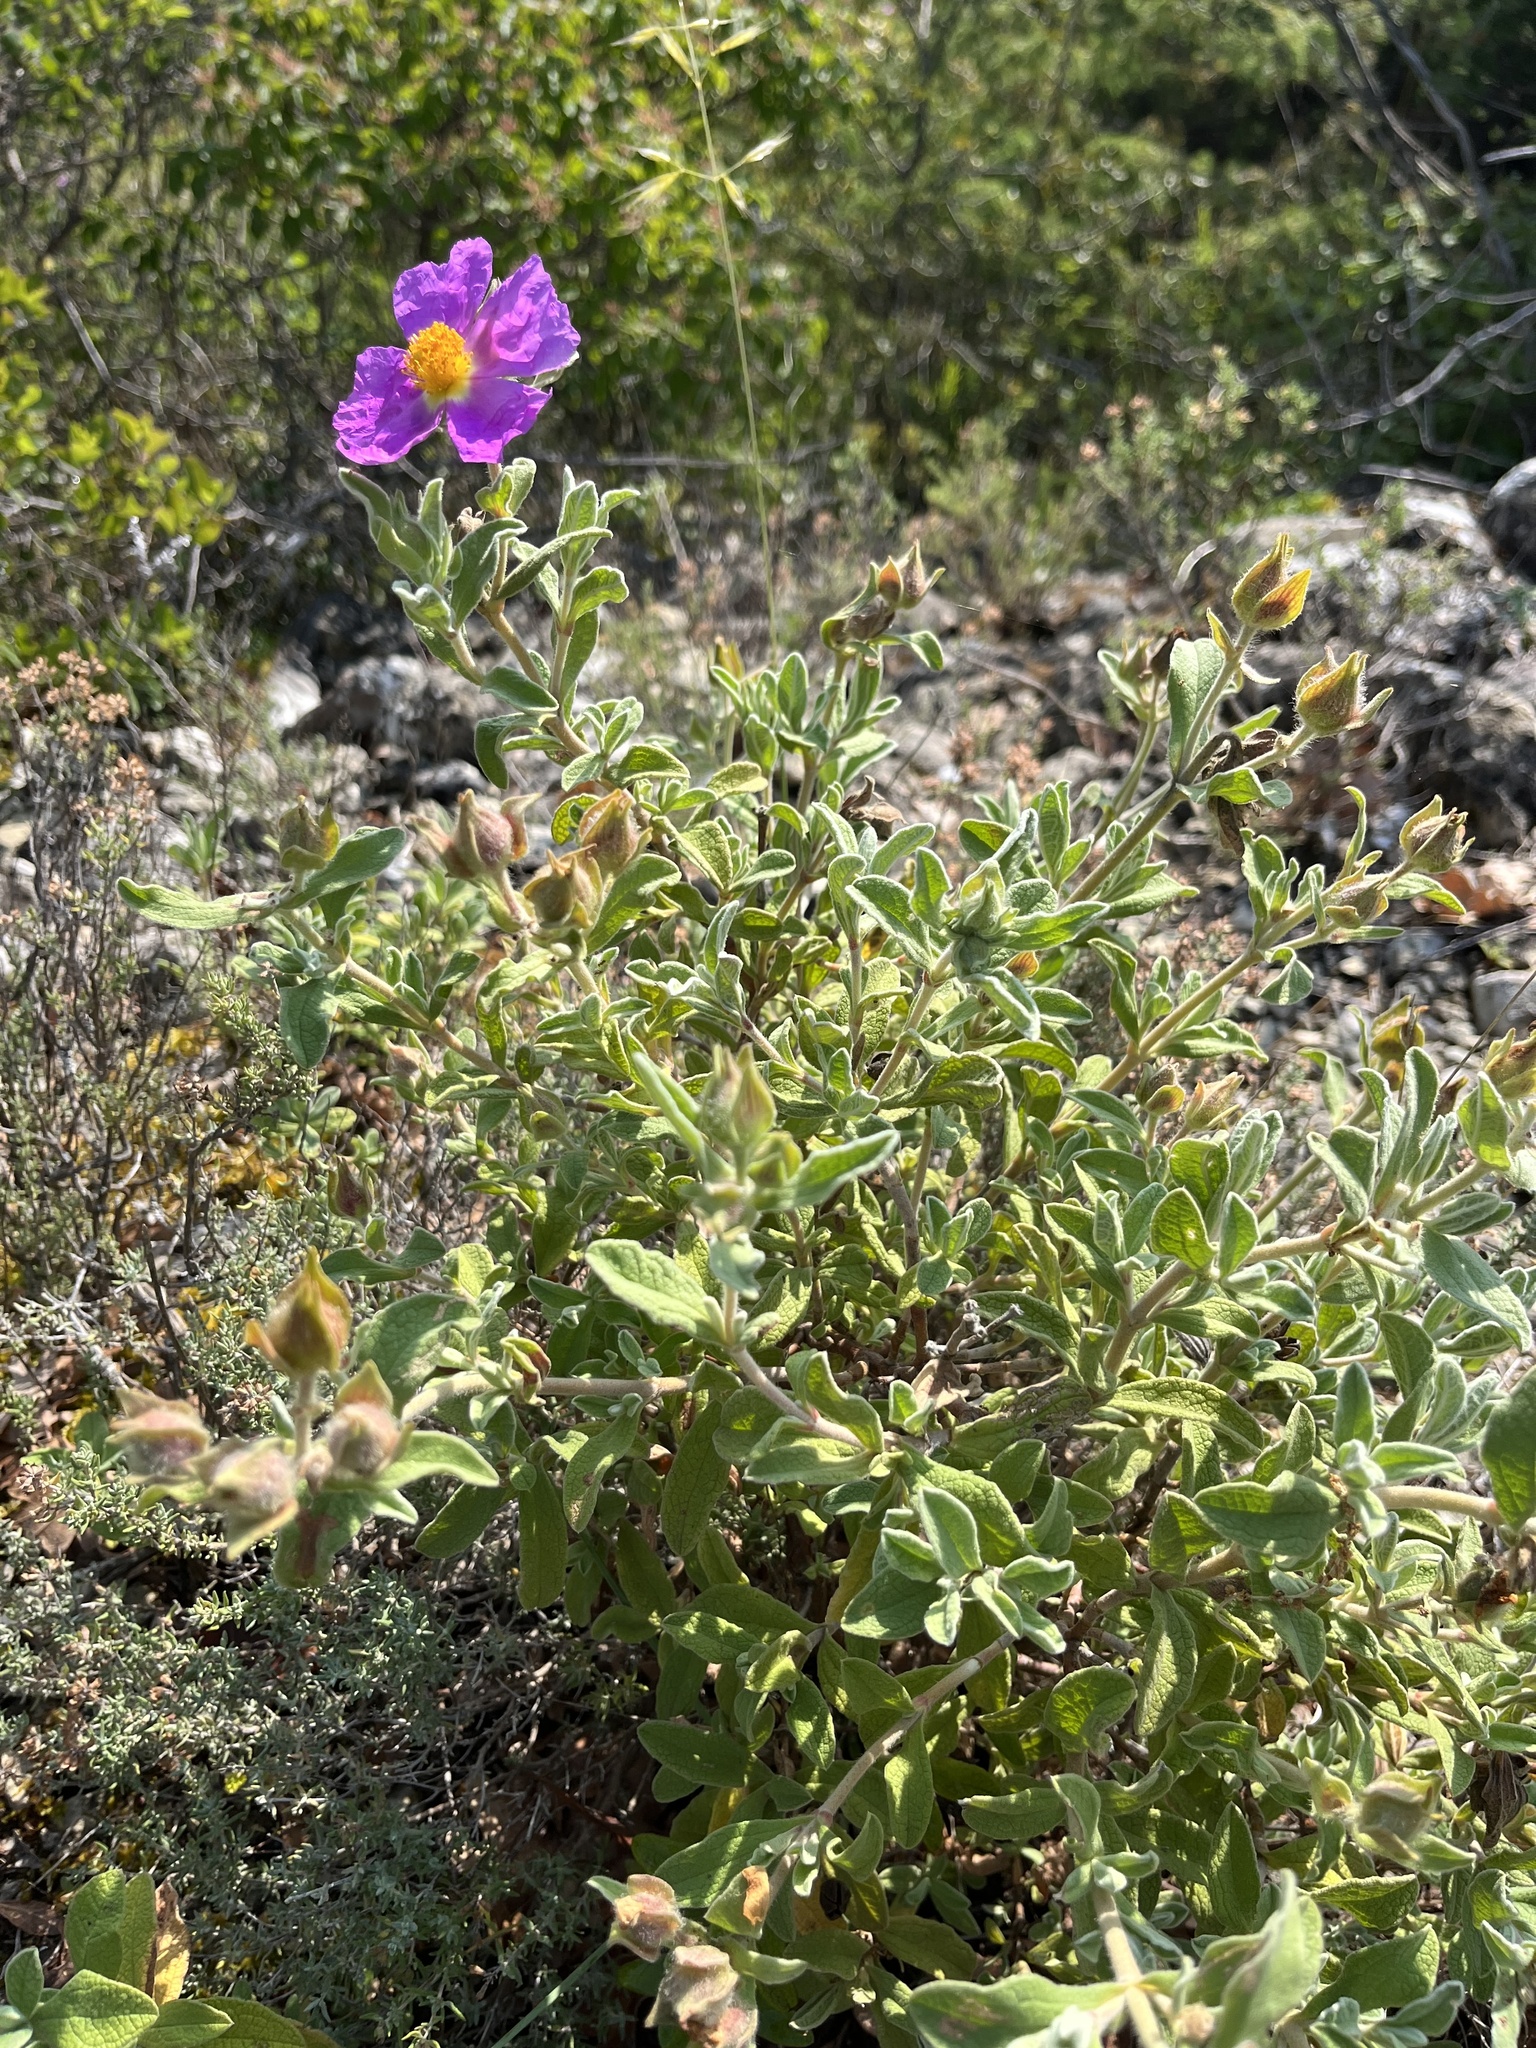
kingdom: Plantae
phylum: Tracheophyta
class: Magnoliopsida
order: Malvales
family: Cistaceae
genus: Cistus
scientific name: Cistus albidus
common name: White-leaf rock-rose
